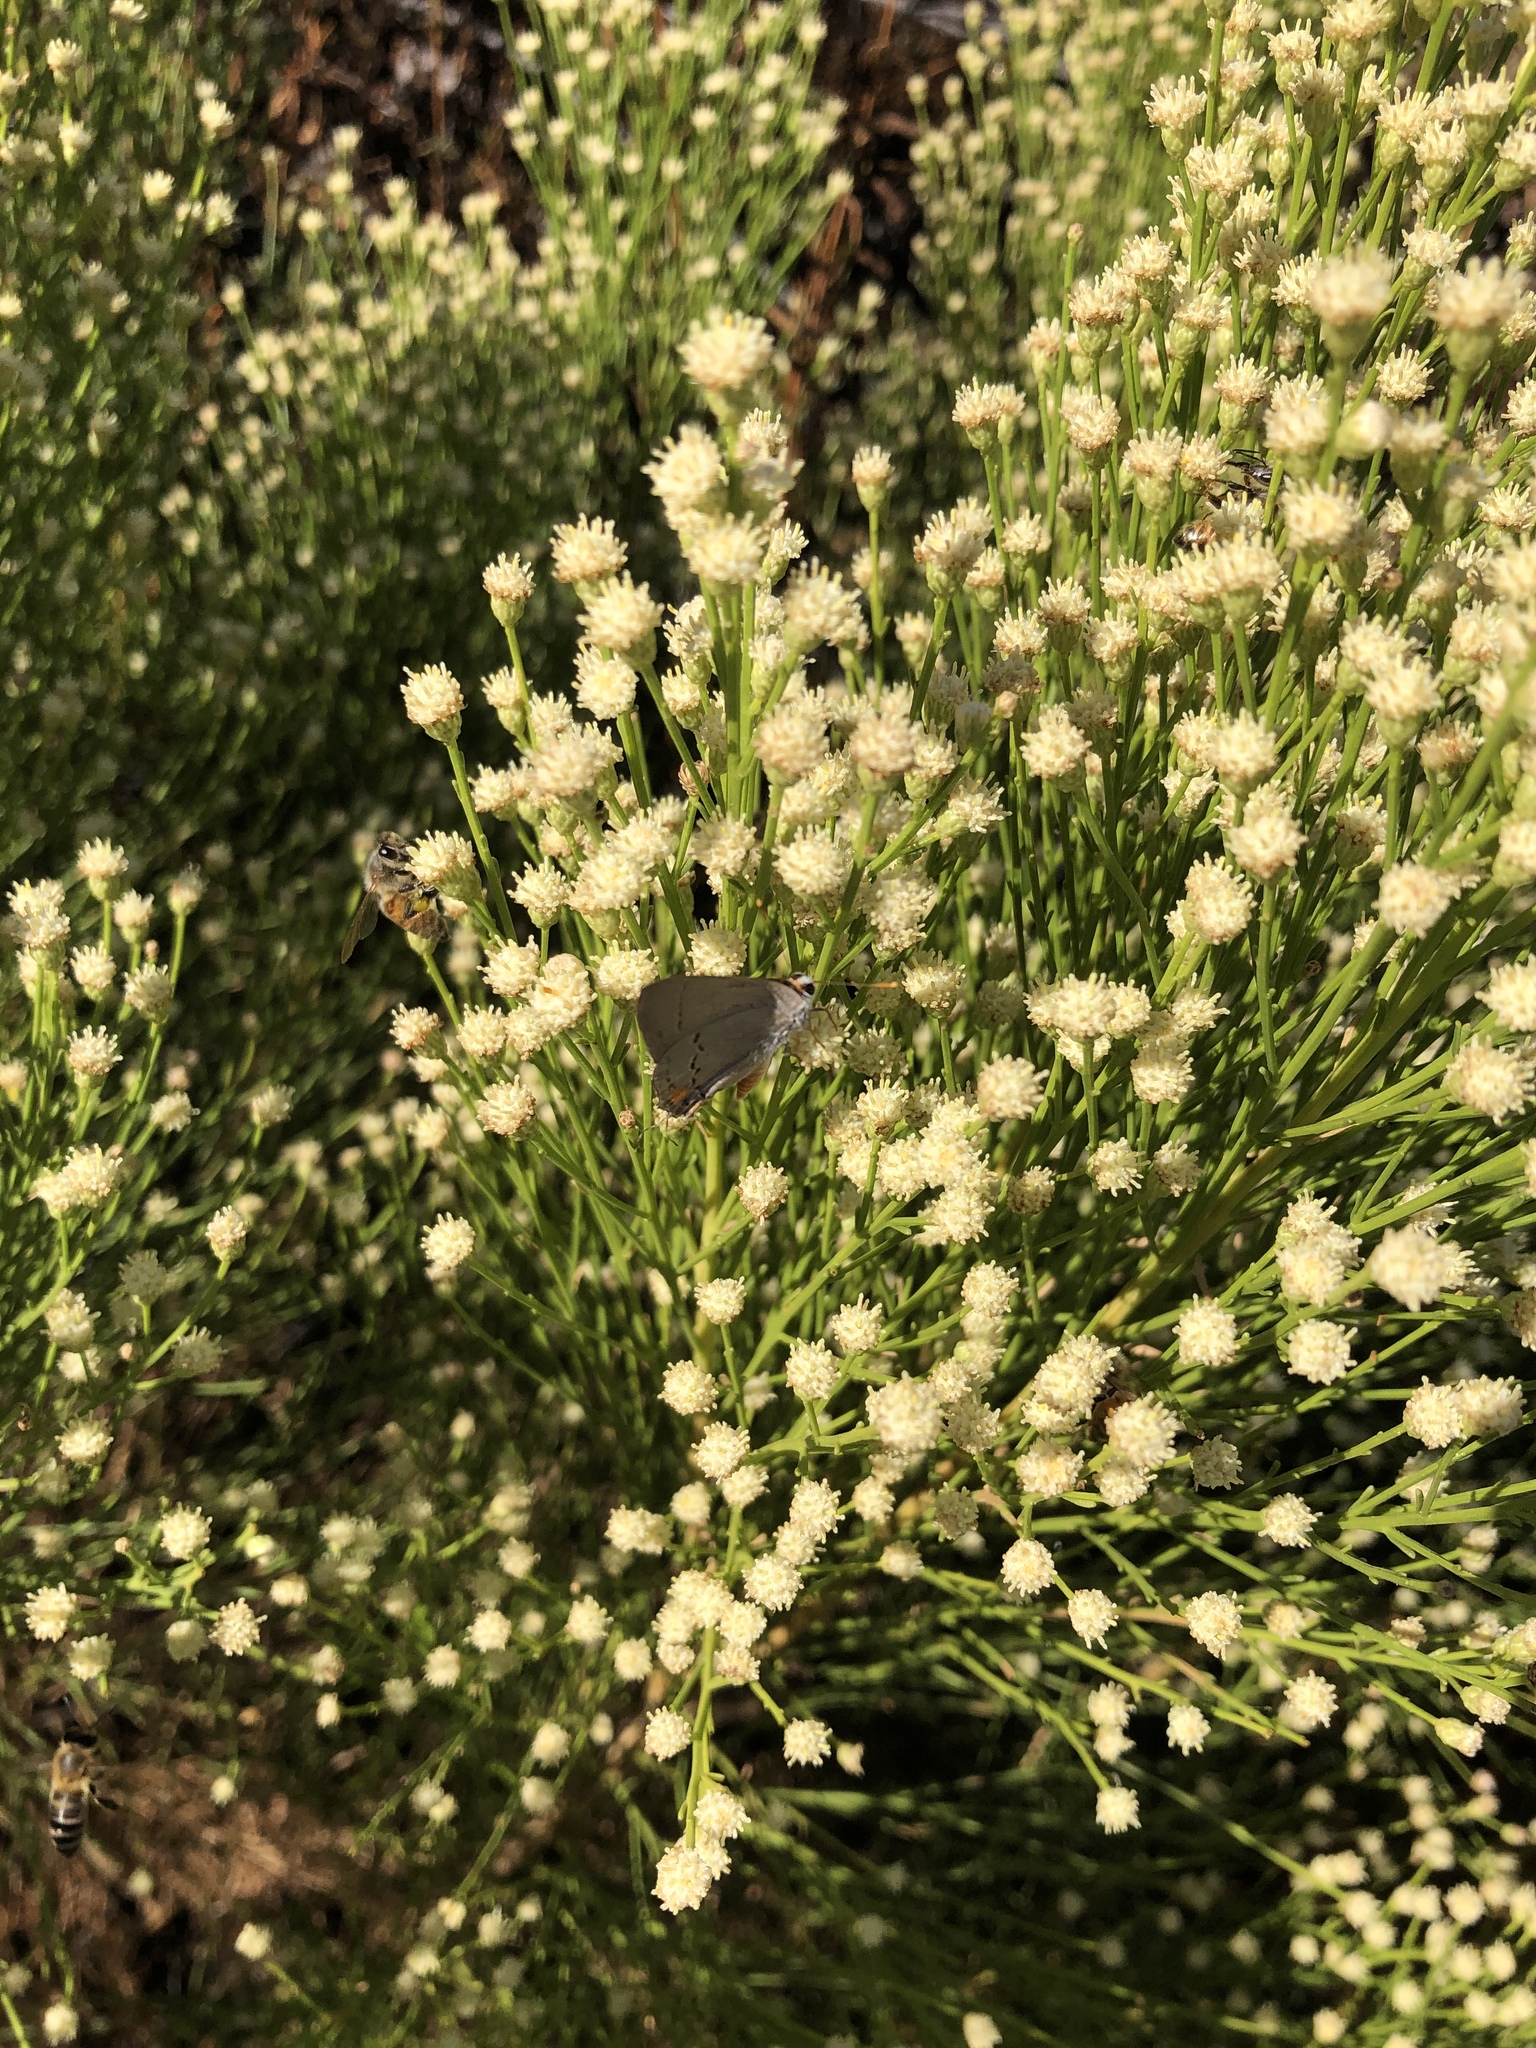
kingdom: Plantae
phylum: Tracheophyta
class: Magnoliopsida
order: Asterales
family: Asteraceae
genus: Baccharis
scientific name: Baccharis sarothroides
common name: Desert-broom
